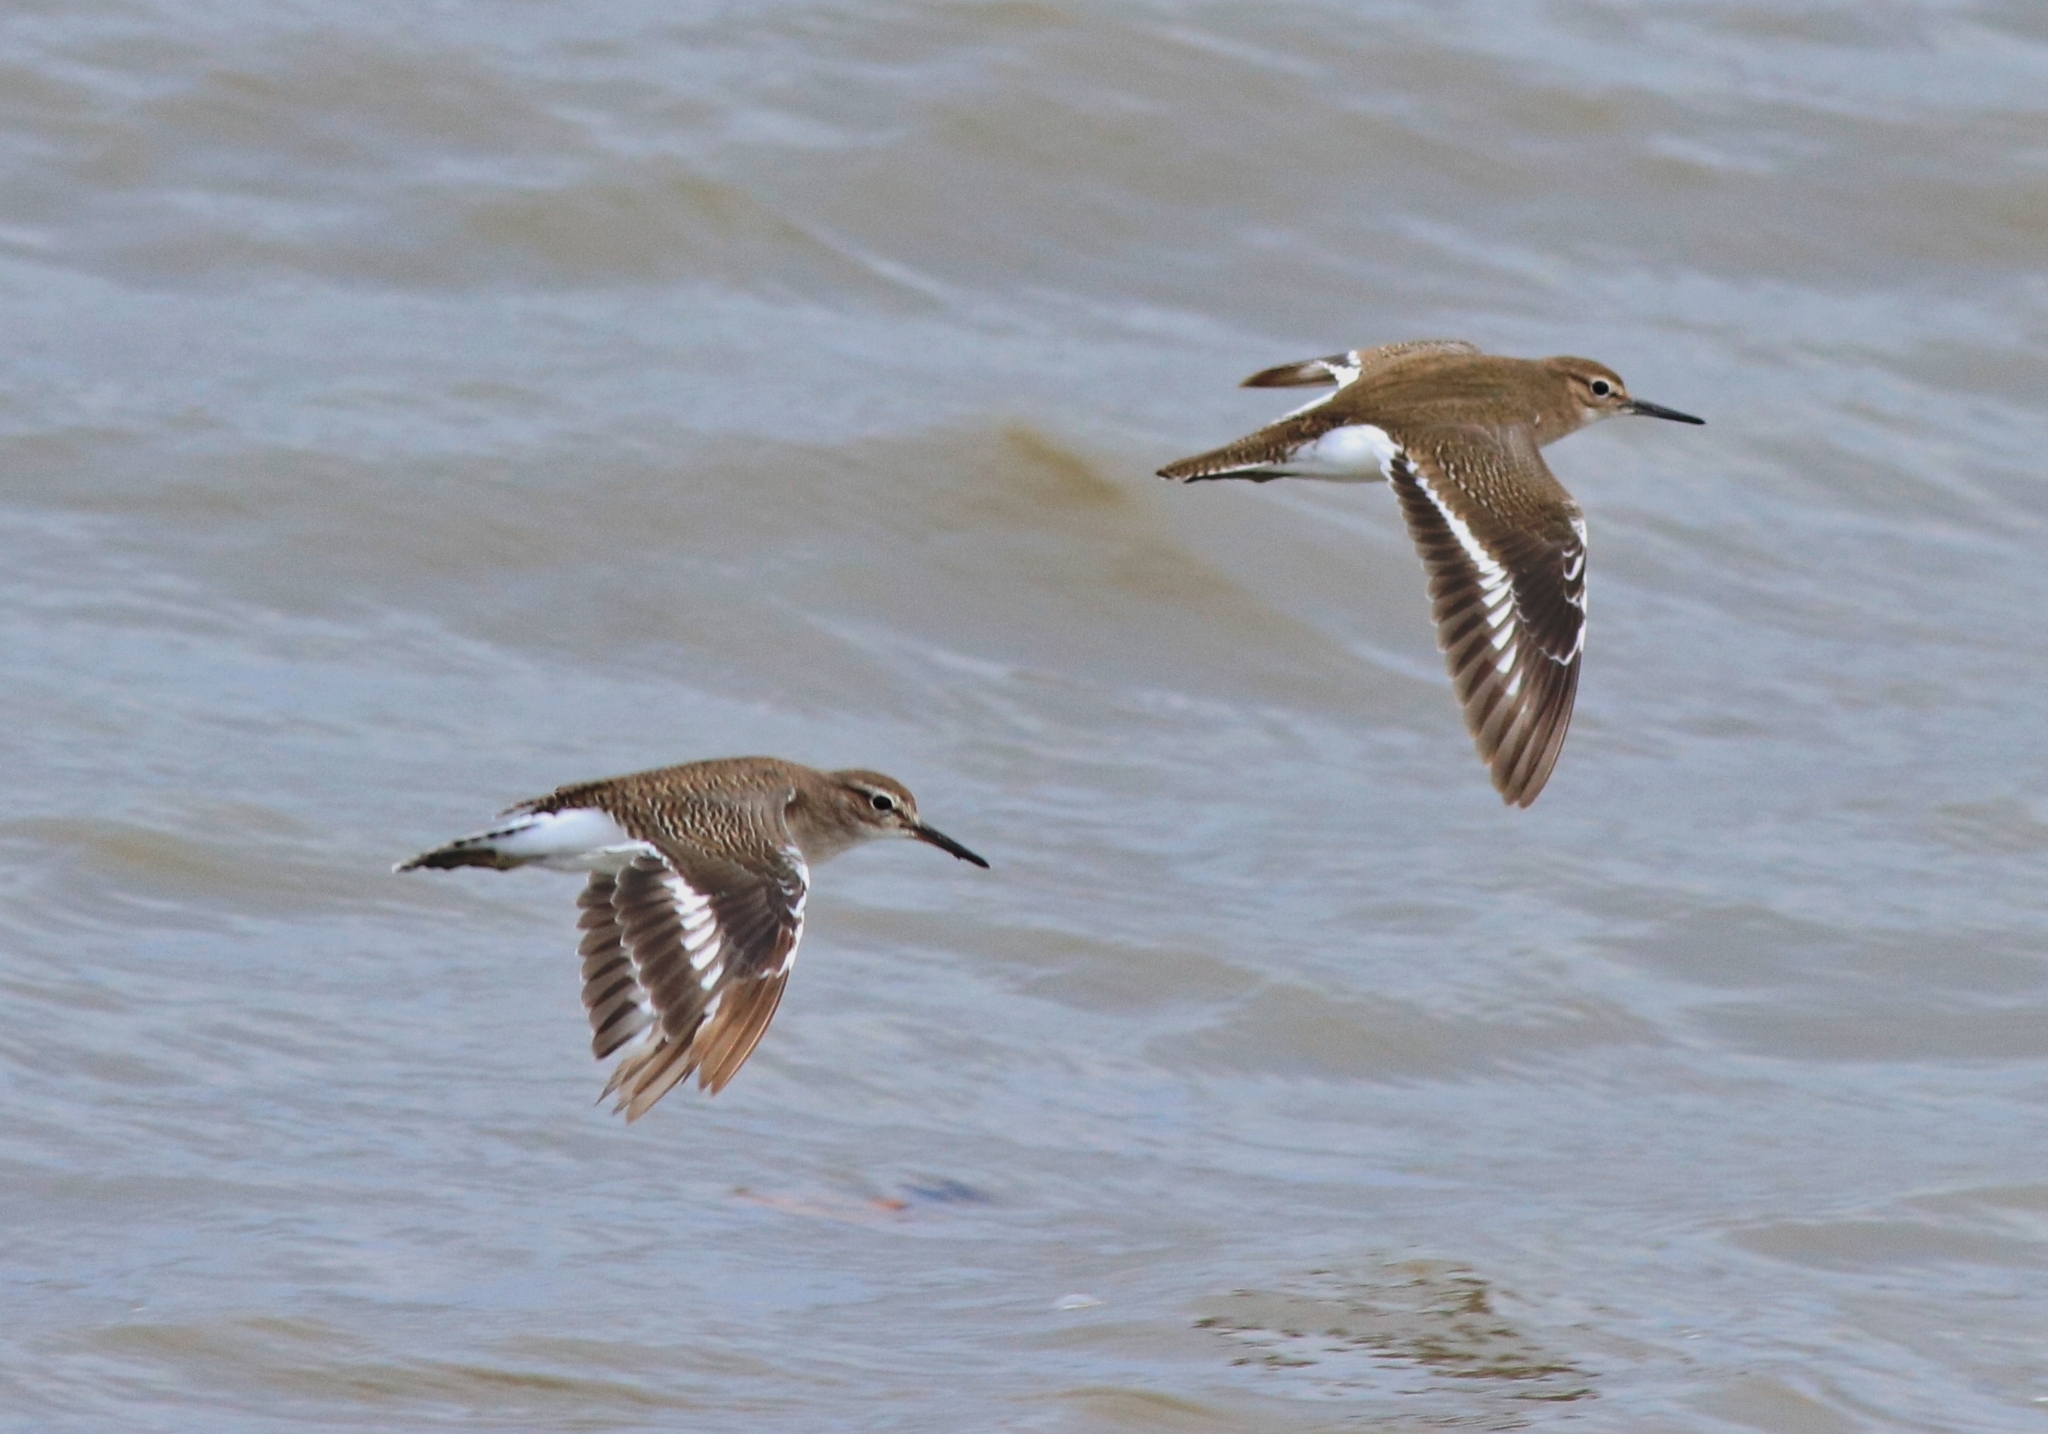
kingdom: Animalia
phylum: Chordata
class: Aves
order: Charadriiformes
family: Scolopacidae
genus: Actitis
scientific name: Actitis hypoleucos
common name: Common sandpiper
